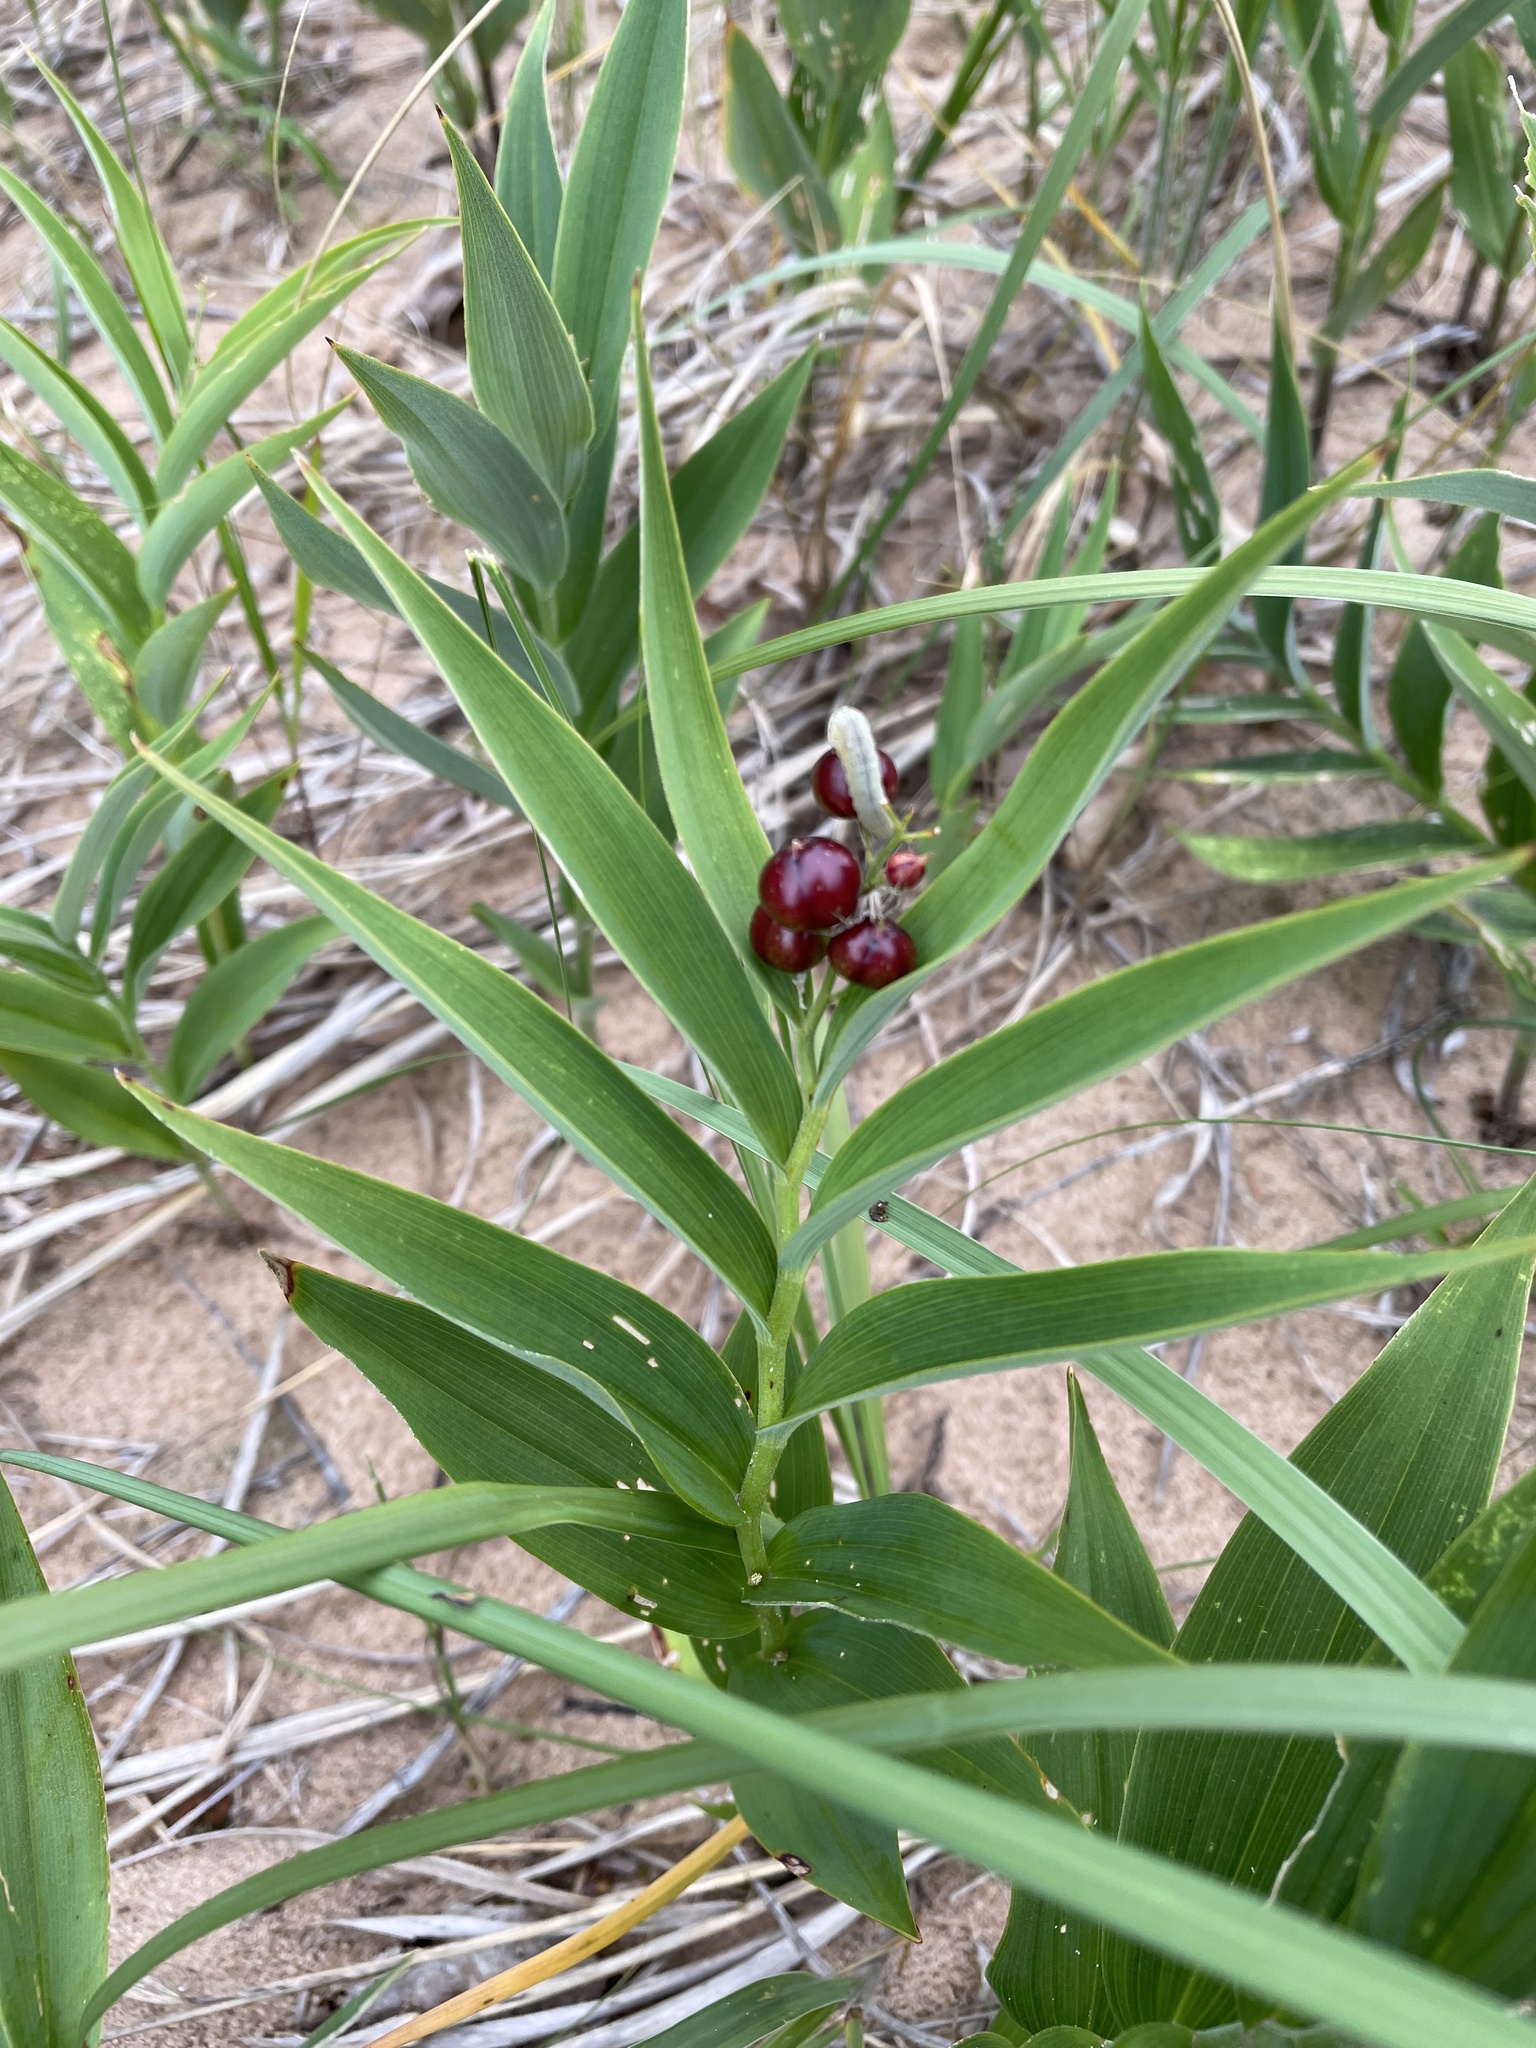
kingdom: Plantae
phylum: Tracheophyta
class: Liliopsida
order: Asparagales
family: Asparagaceae
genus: Maianthemum
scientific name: Maianthemum stellatum
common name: Little false solomon's seal
